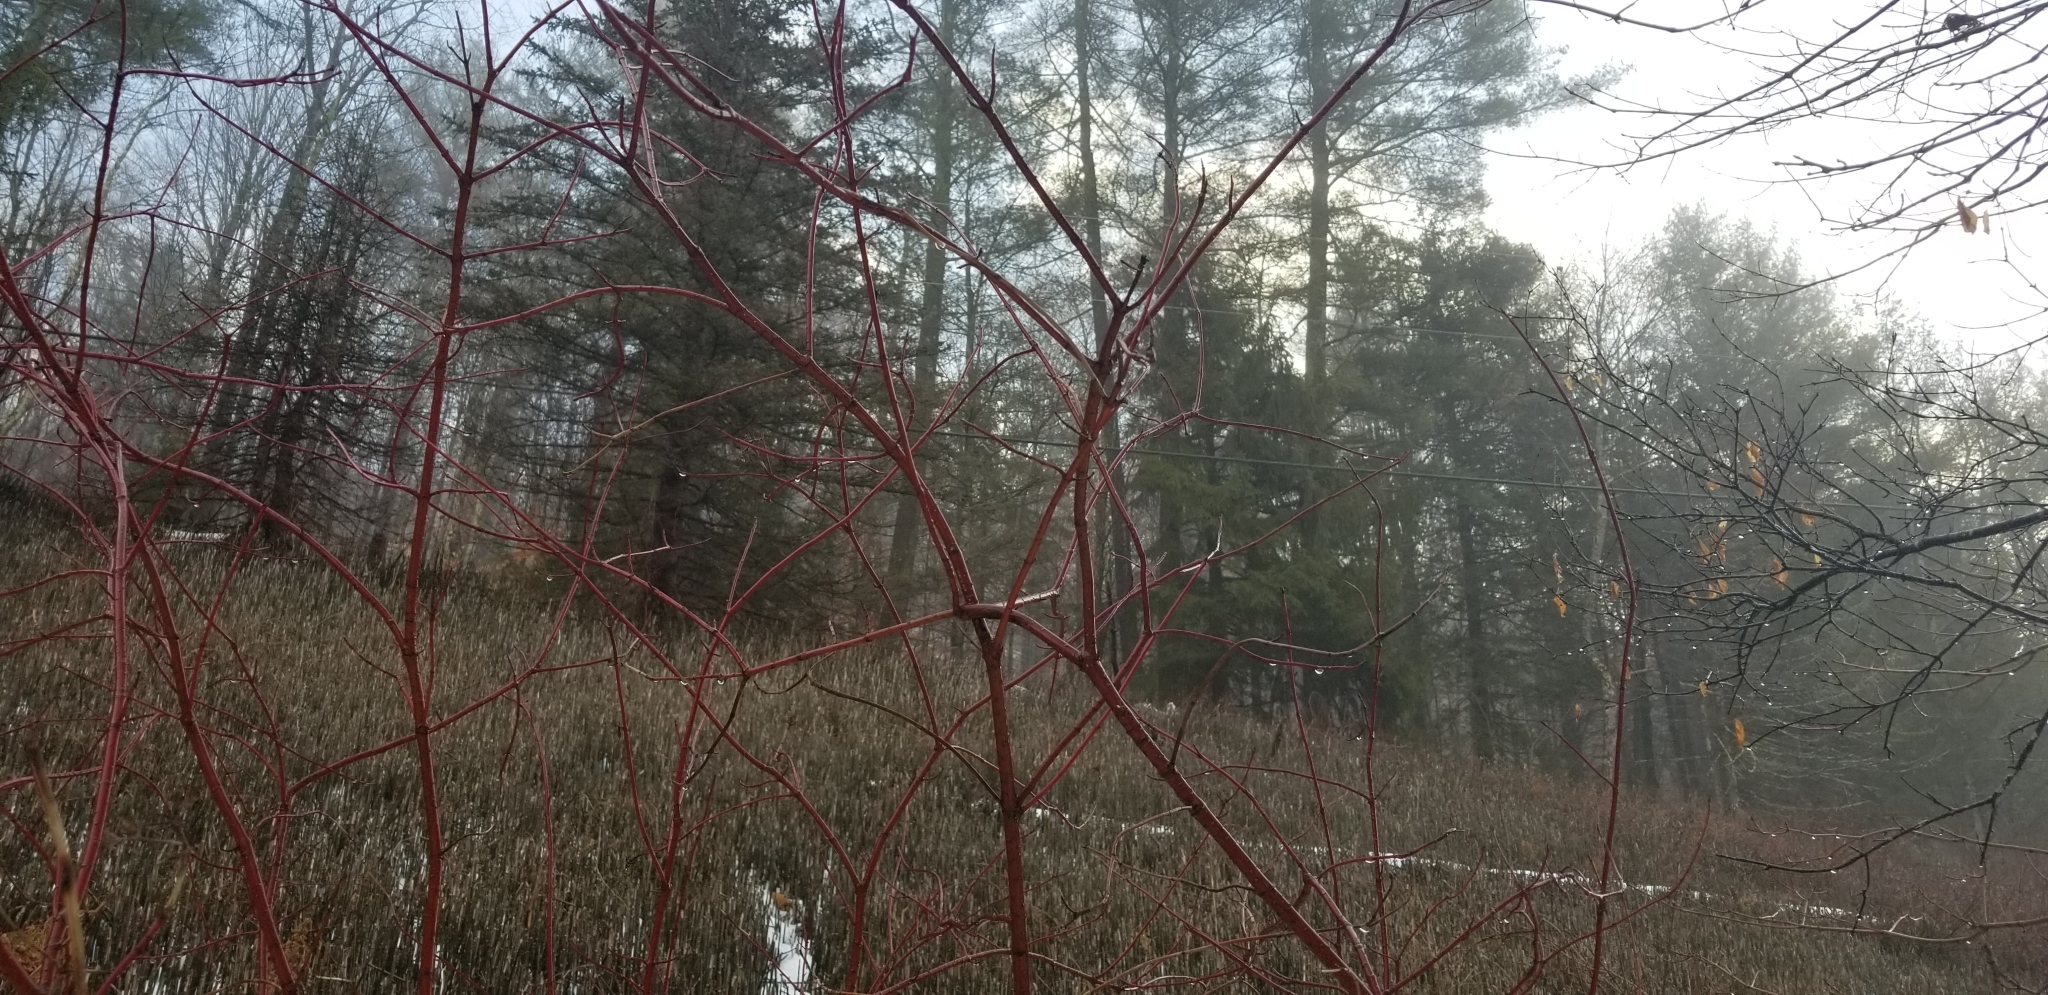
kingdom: Plantae
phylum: Tracheophyta
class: Magnoliopsida
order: Cornales
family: Cornaceae
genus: Cornus
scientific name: Cornus sericea
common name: Red-osier dogwood
